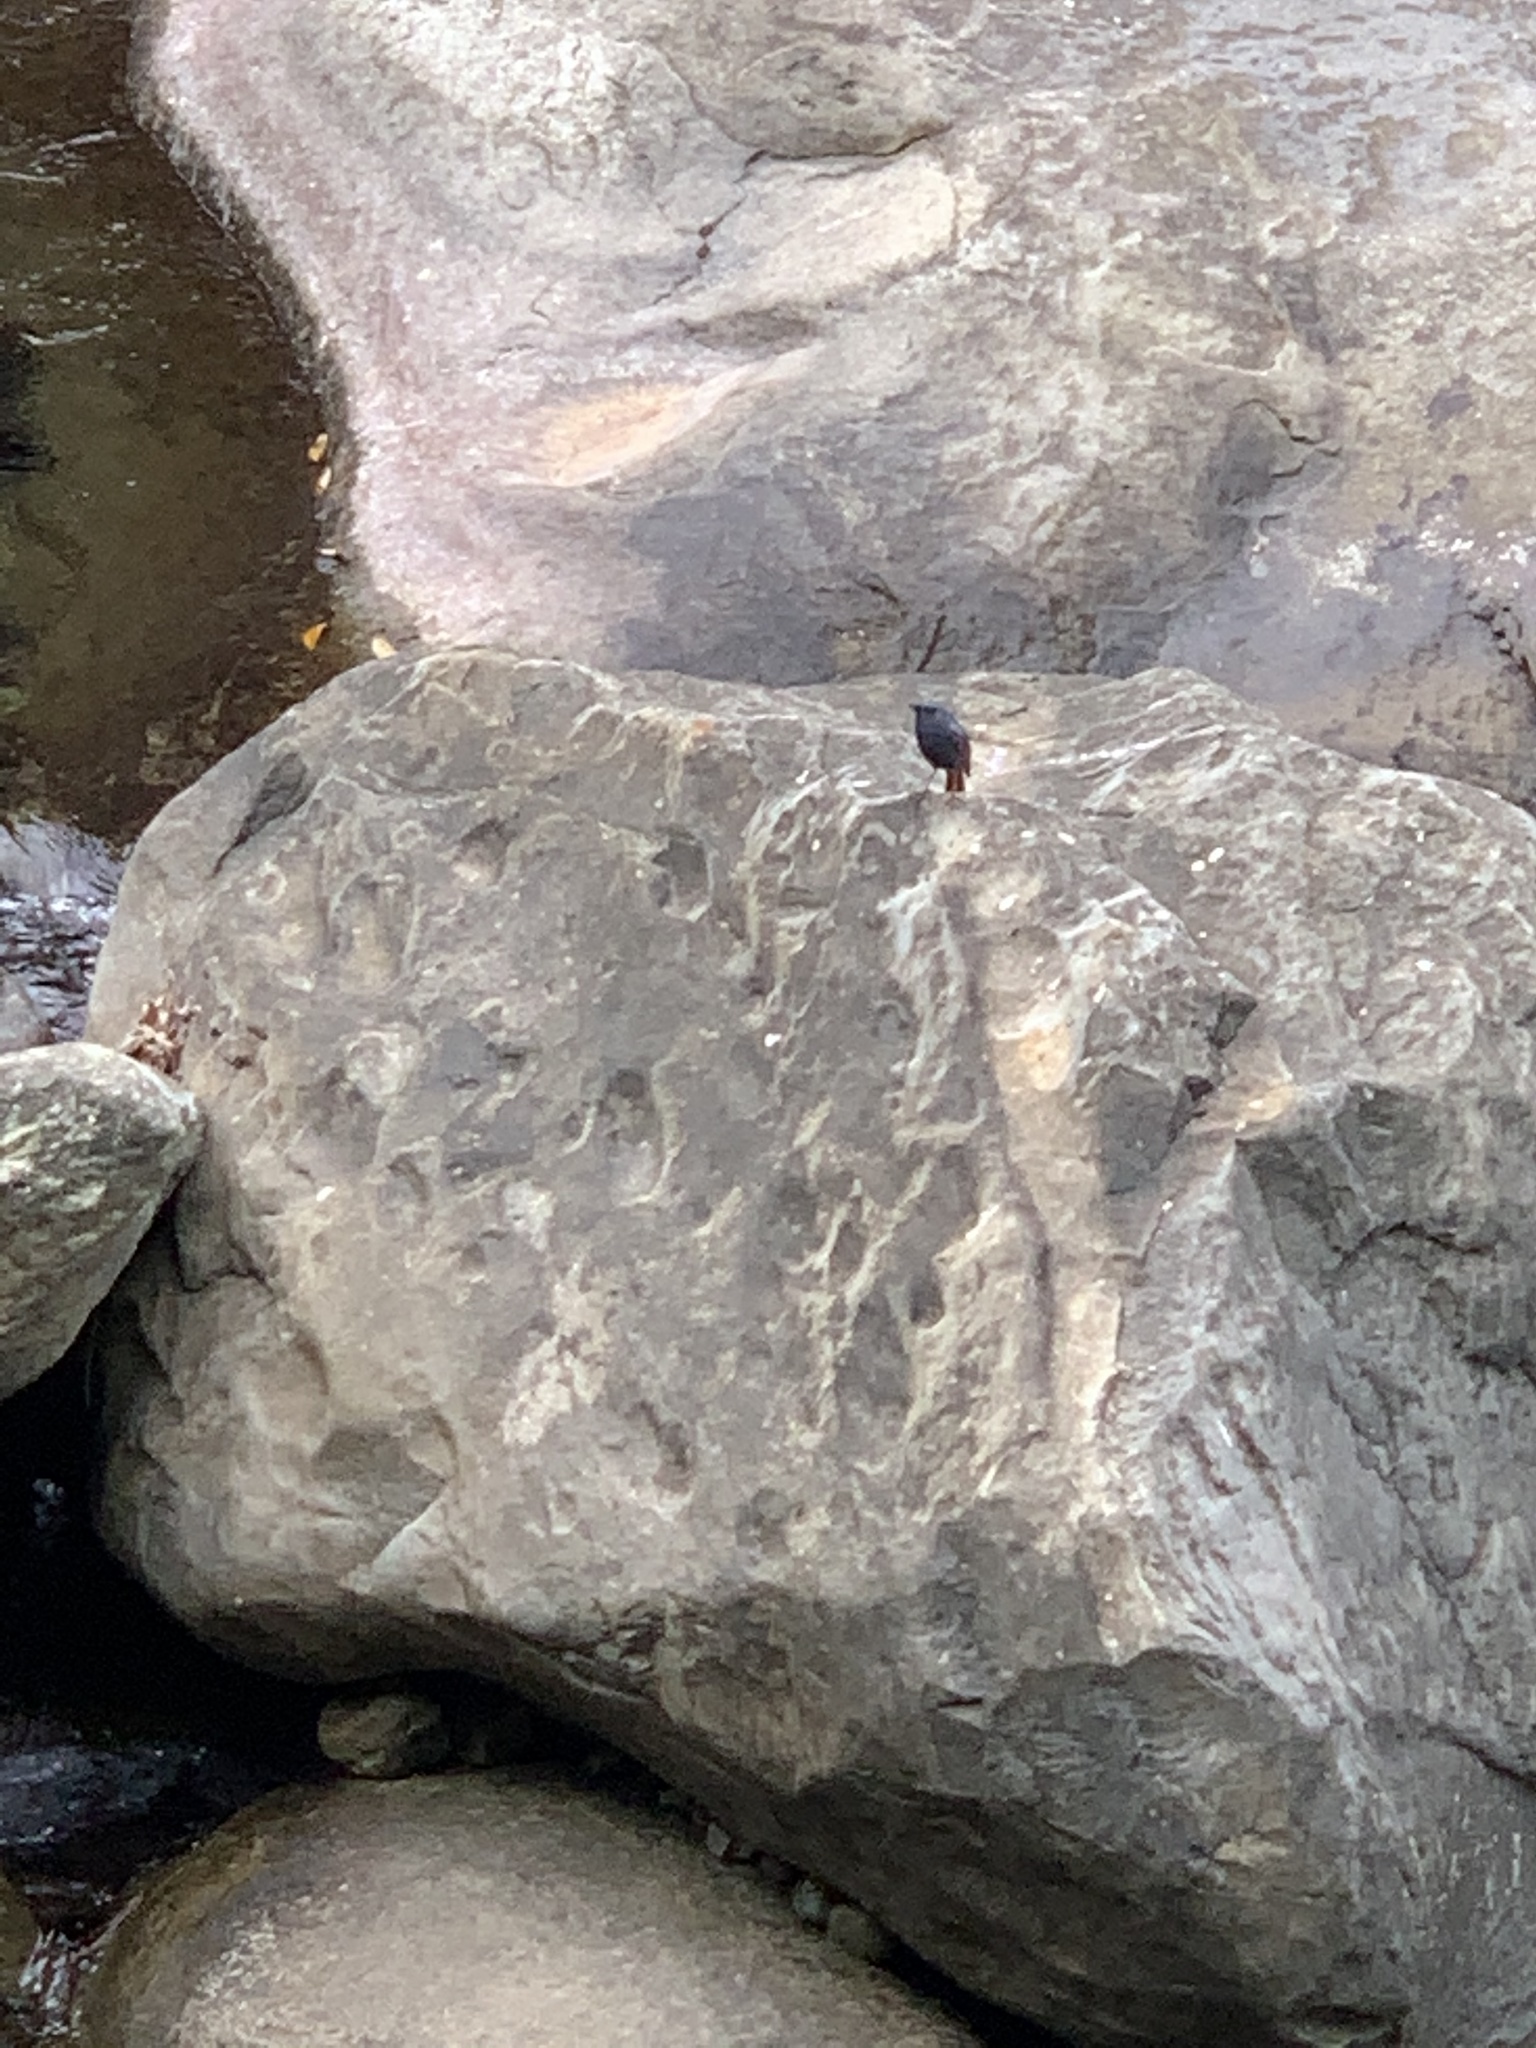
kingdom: Animalia
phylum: Chordata
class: Aves
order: Passeriformes
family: Muscicapidae
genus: Phoenicurus
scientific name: Phoenicurus fuliginosus
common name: Plumbeous water redstart
